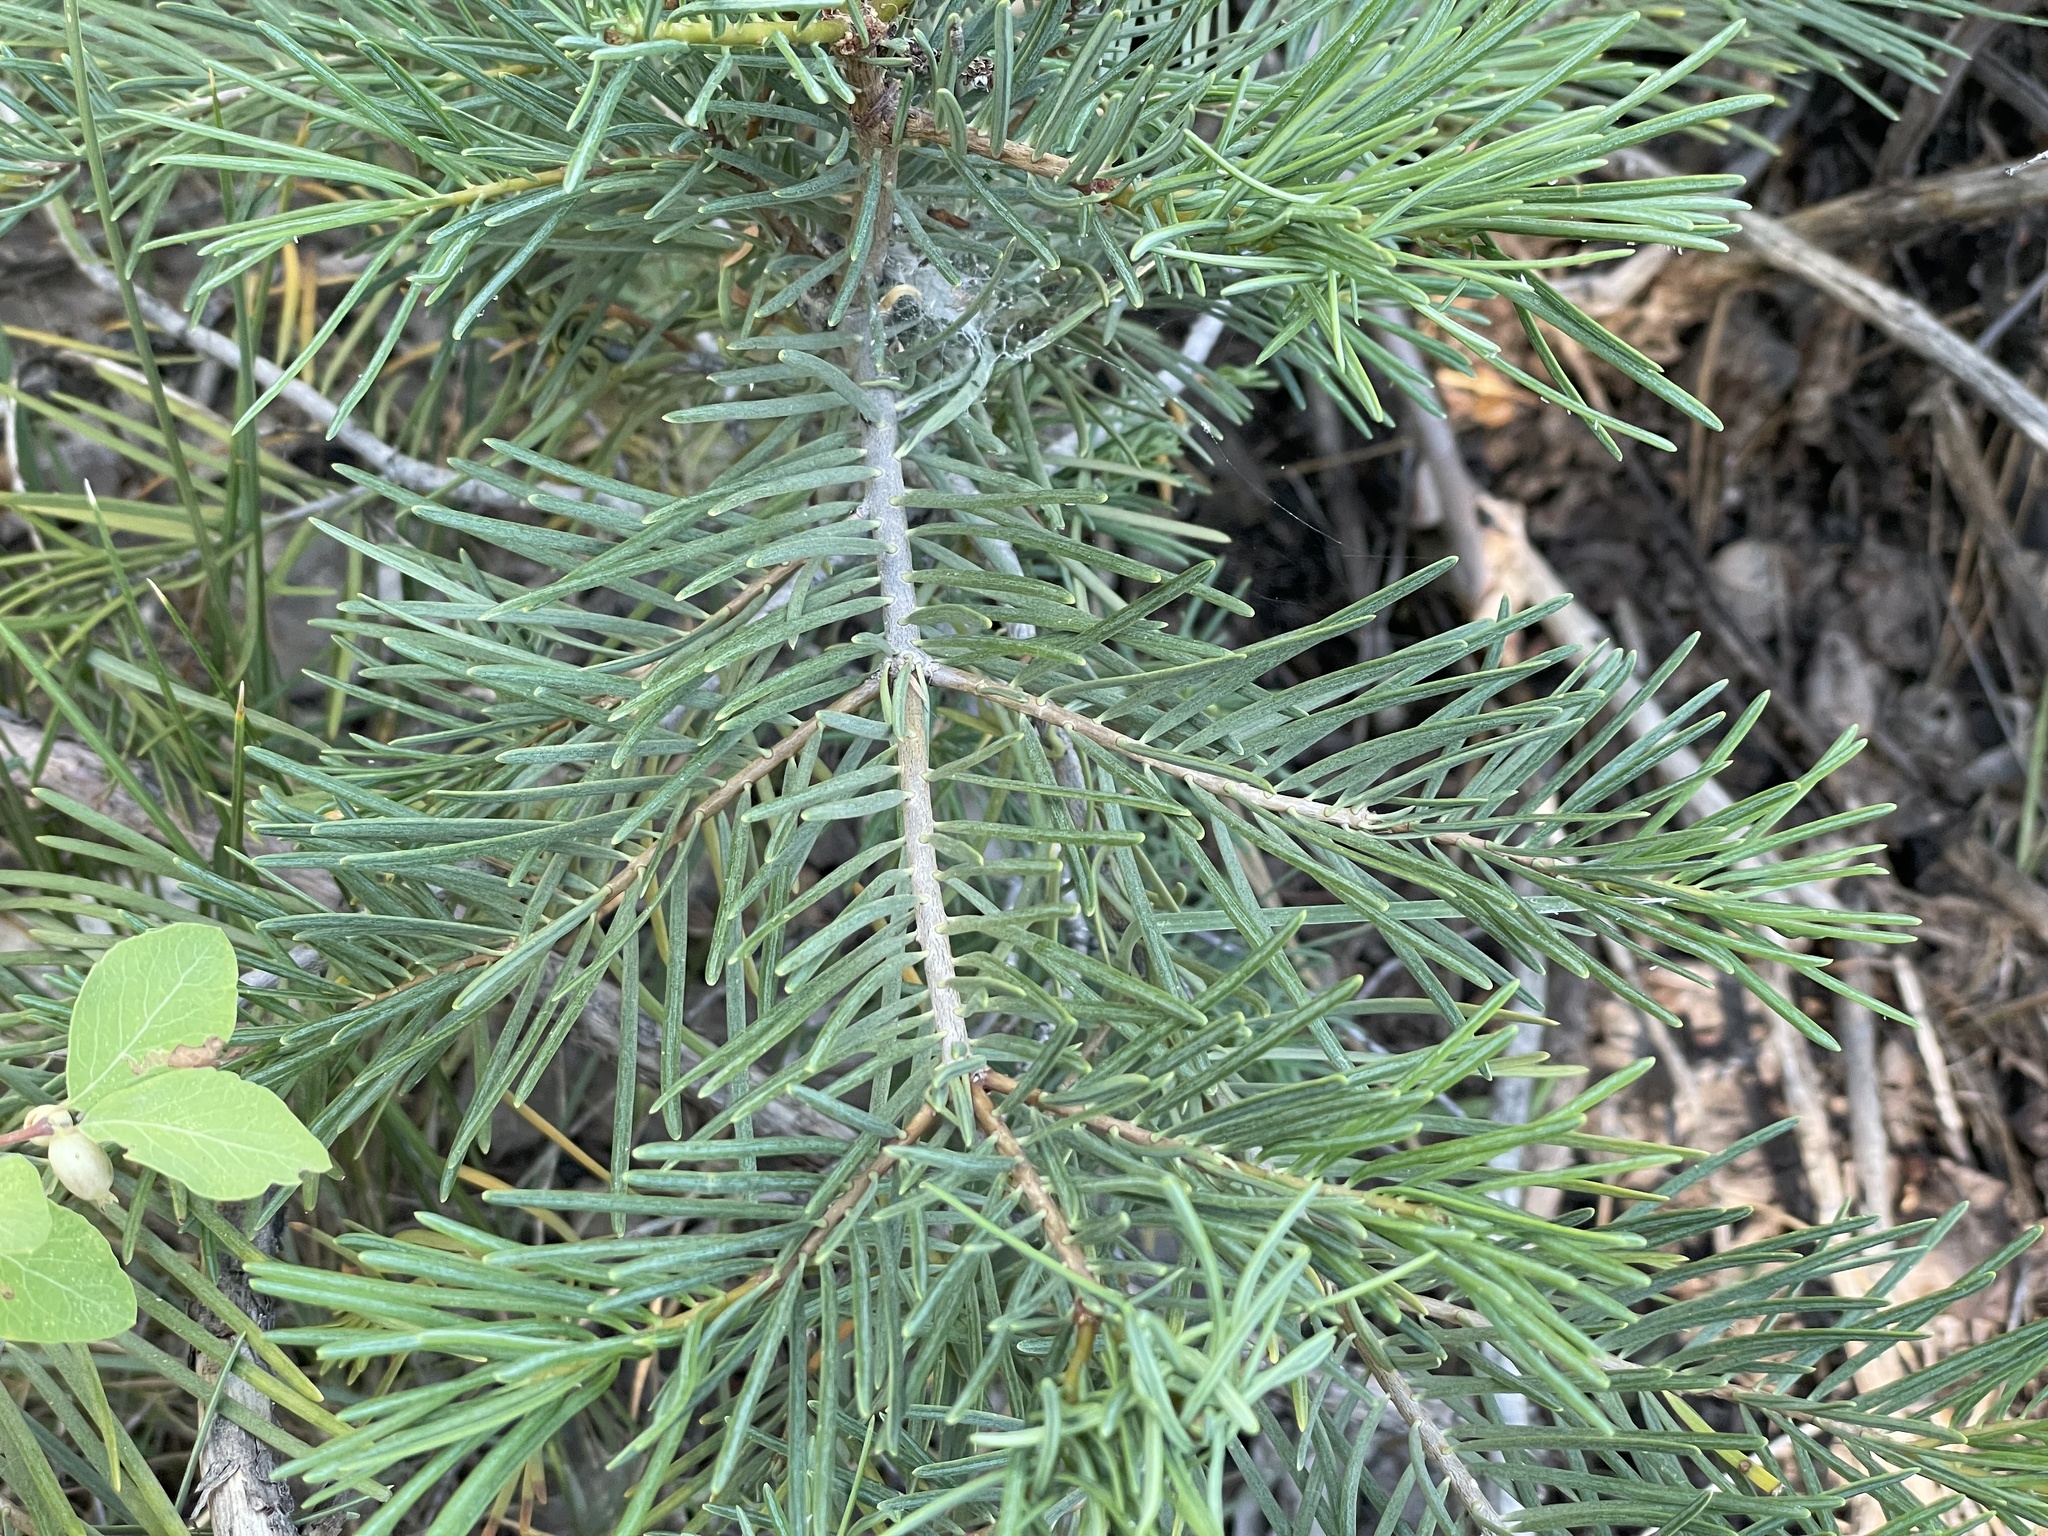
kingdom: Plantae
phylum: Tracheophyta
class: Pinopsida
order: Pinales
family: Pinaceae
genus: Abies
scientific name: Abies concolor
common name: Colorado fir
